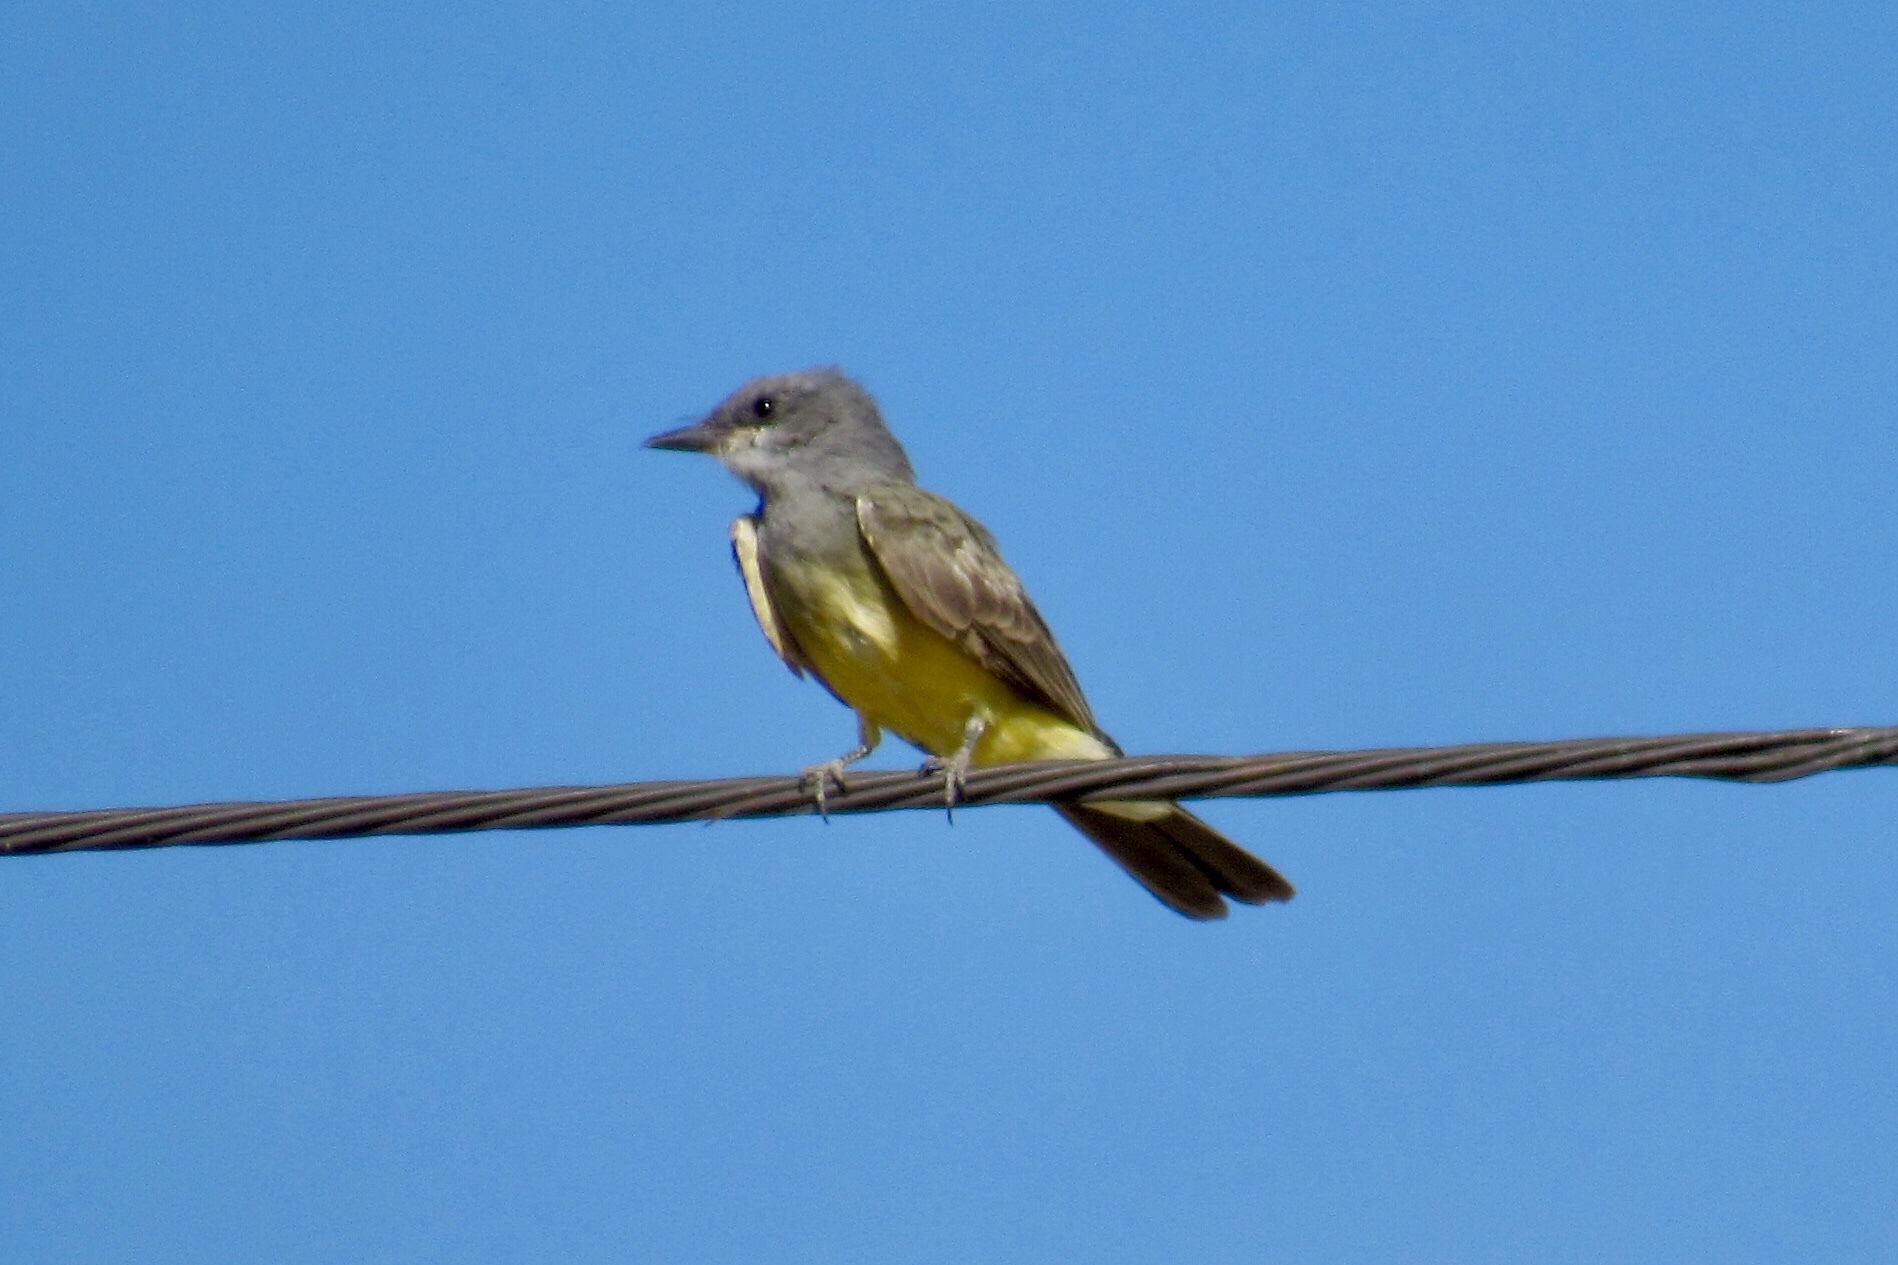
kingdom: Animalia
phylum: Chordata
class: Aves
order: Passeriformes
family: Tyrannidae
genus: Tyrannus
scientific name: Tyrannus vociferans
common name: Cassin's kingbird
